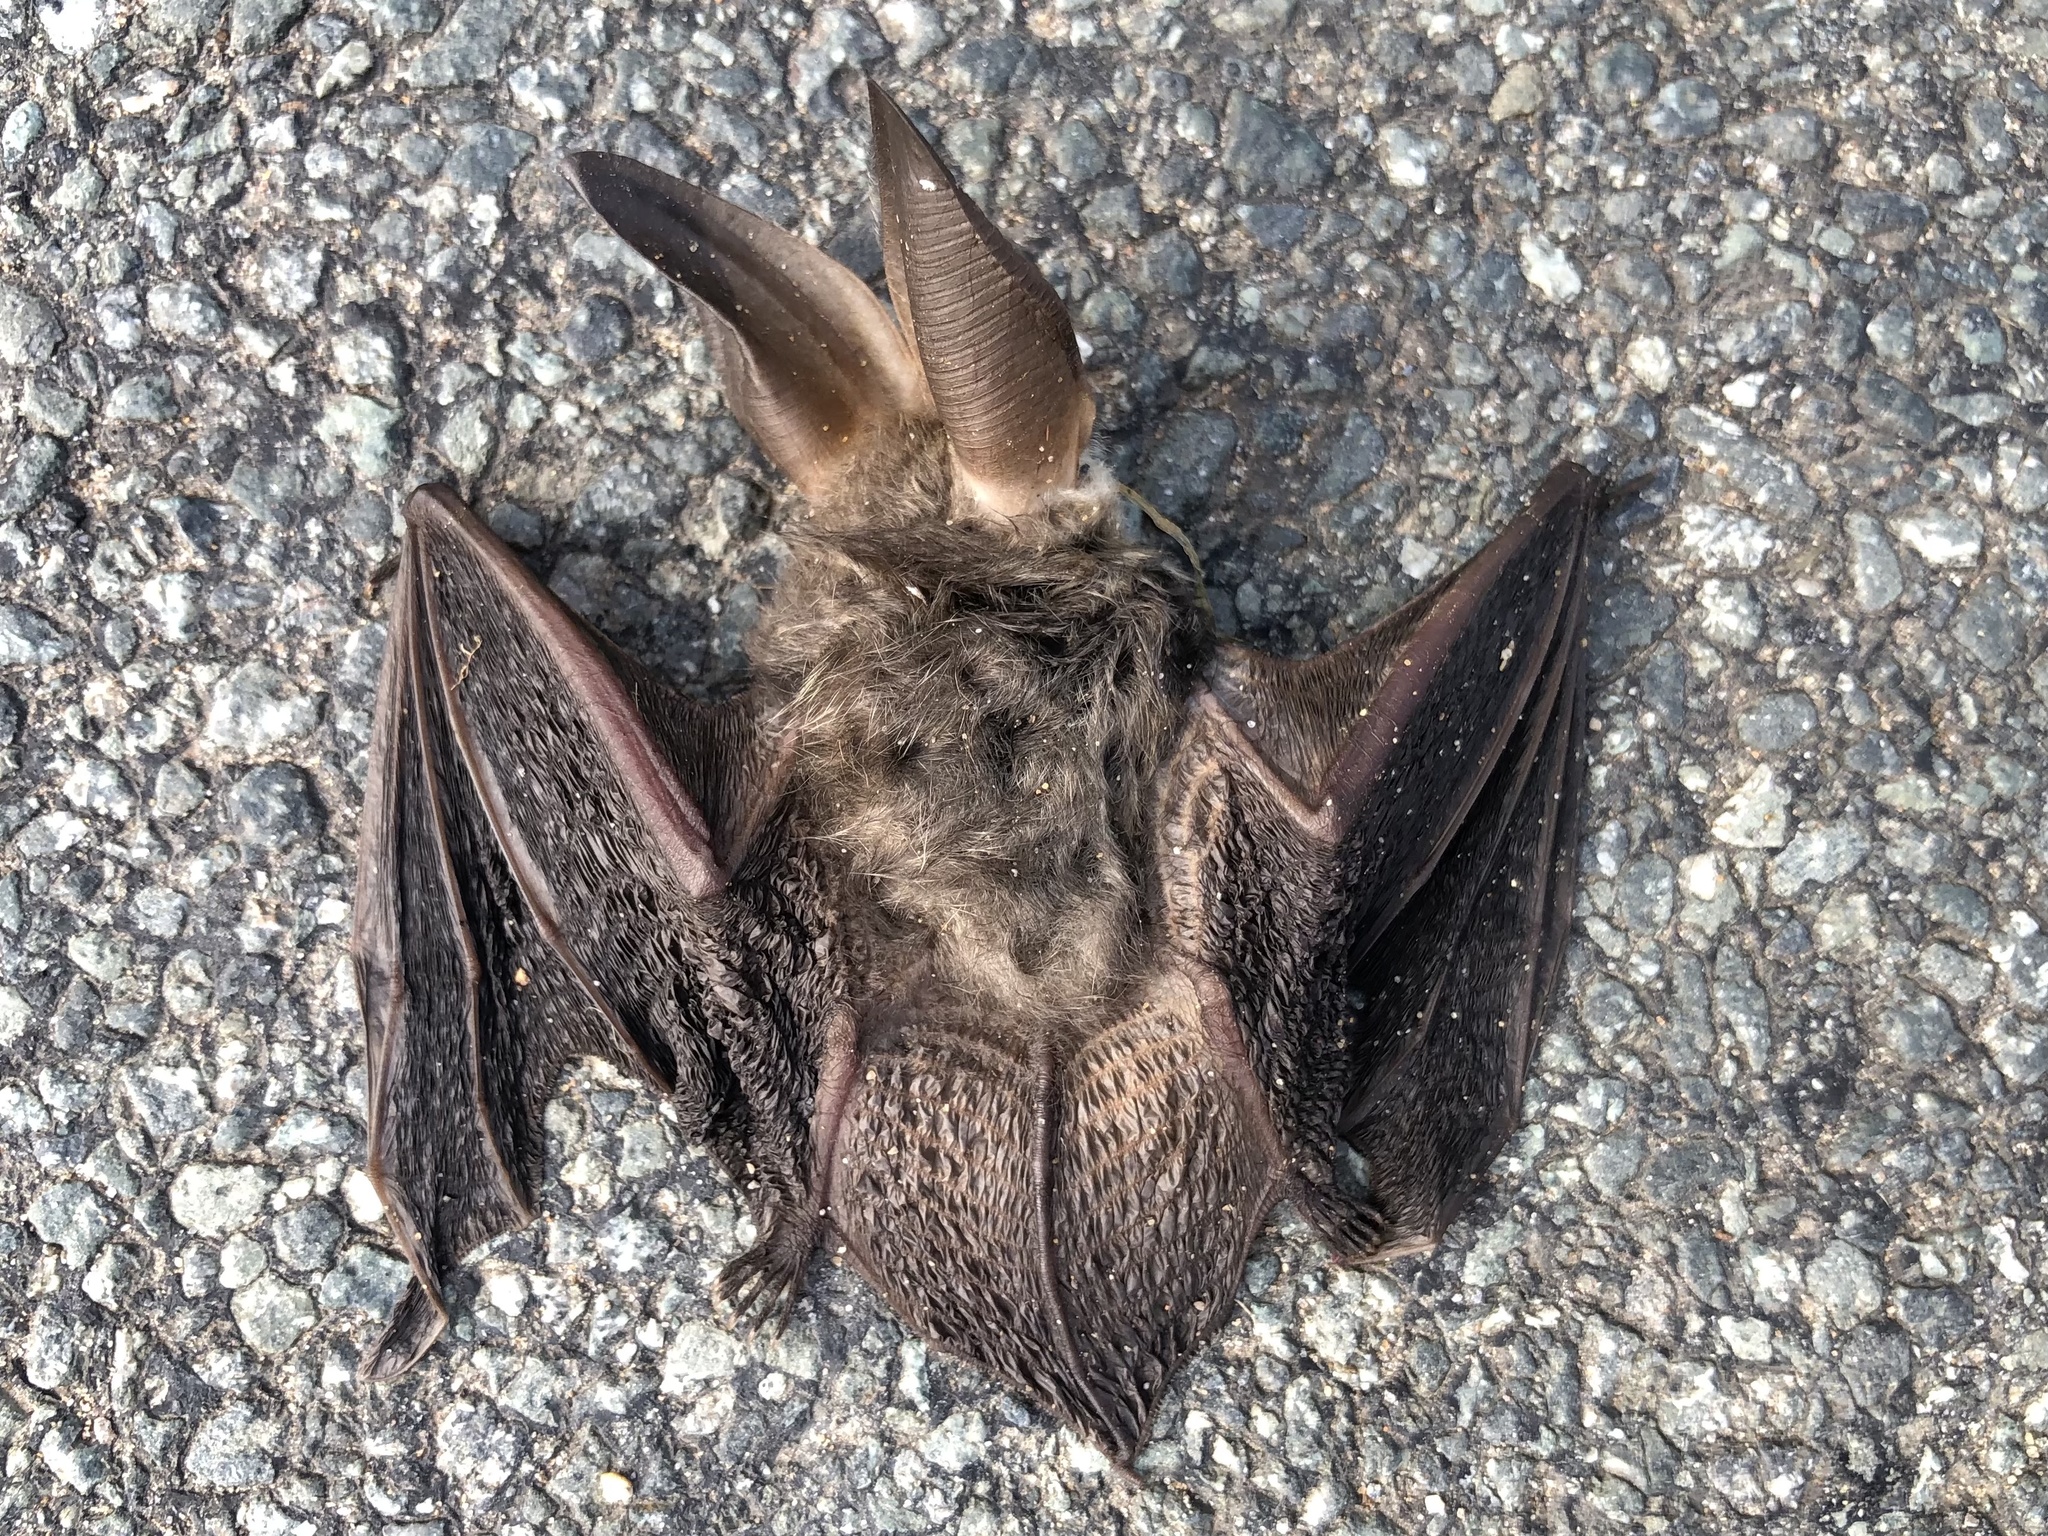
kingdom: Animalia
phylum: Chordata
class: Mammalia
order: Chiroptera
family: Vespertilionidae
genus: Plecotus
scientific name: Plecotus auritus
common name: Brown long-eared bat
